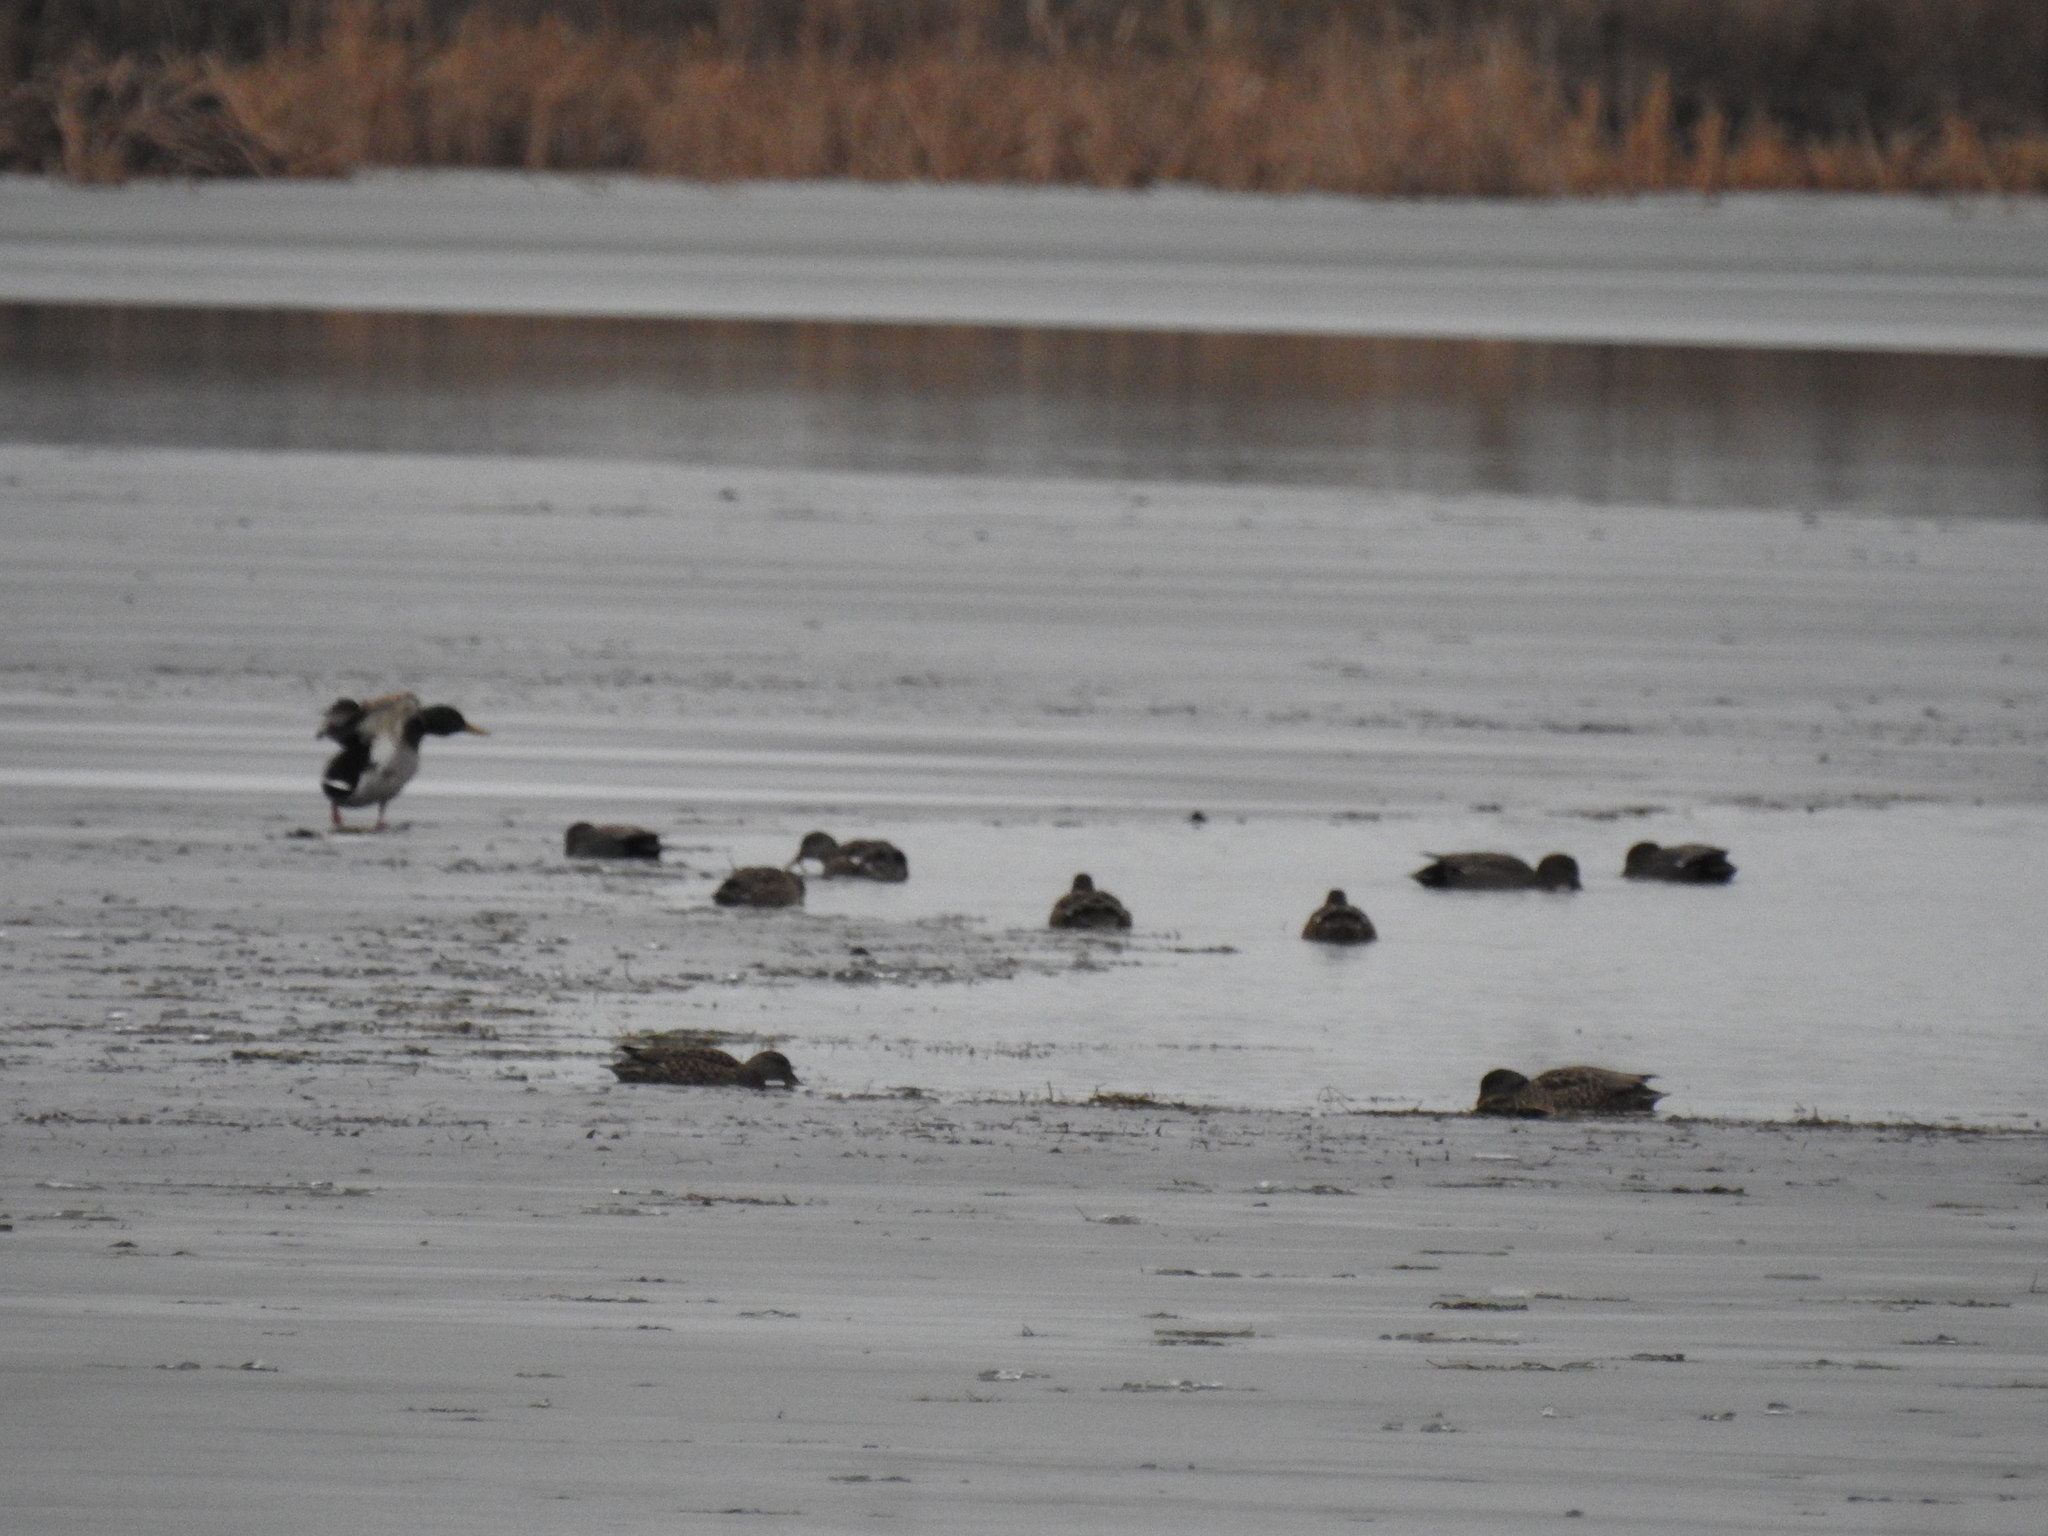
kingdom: Animalia
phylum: Chordata
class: Aves
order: Anseriformes
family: Anatidae
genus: Anas
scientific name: Anas platyrhynchos
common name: Mallard
